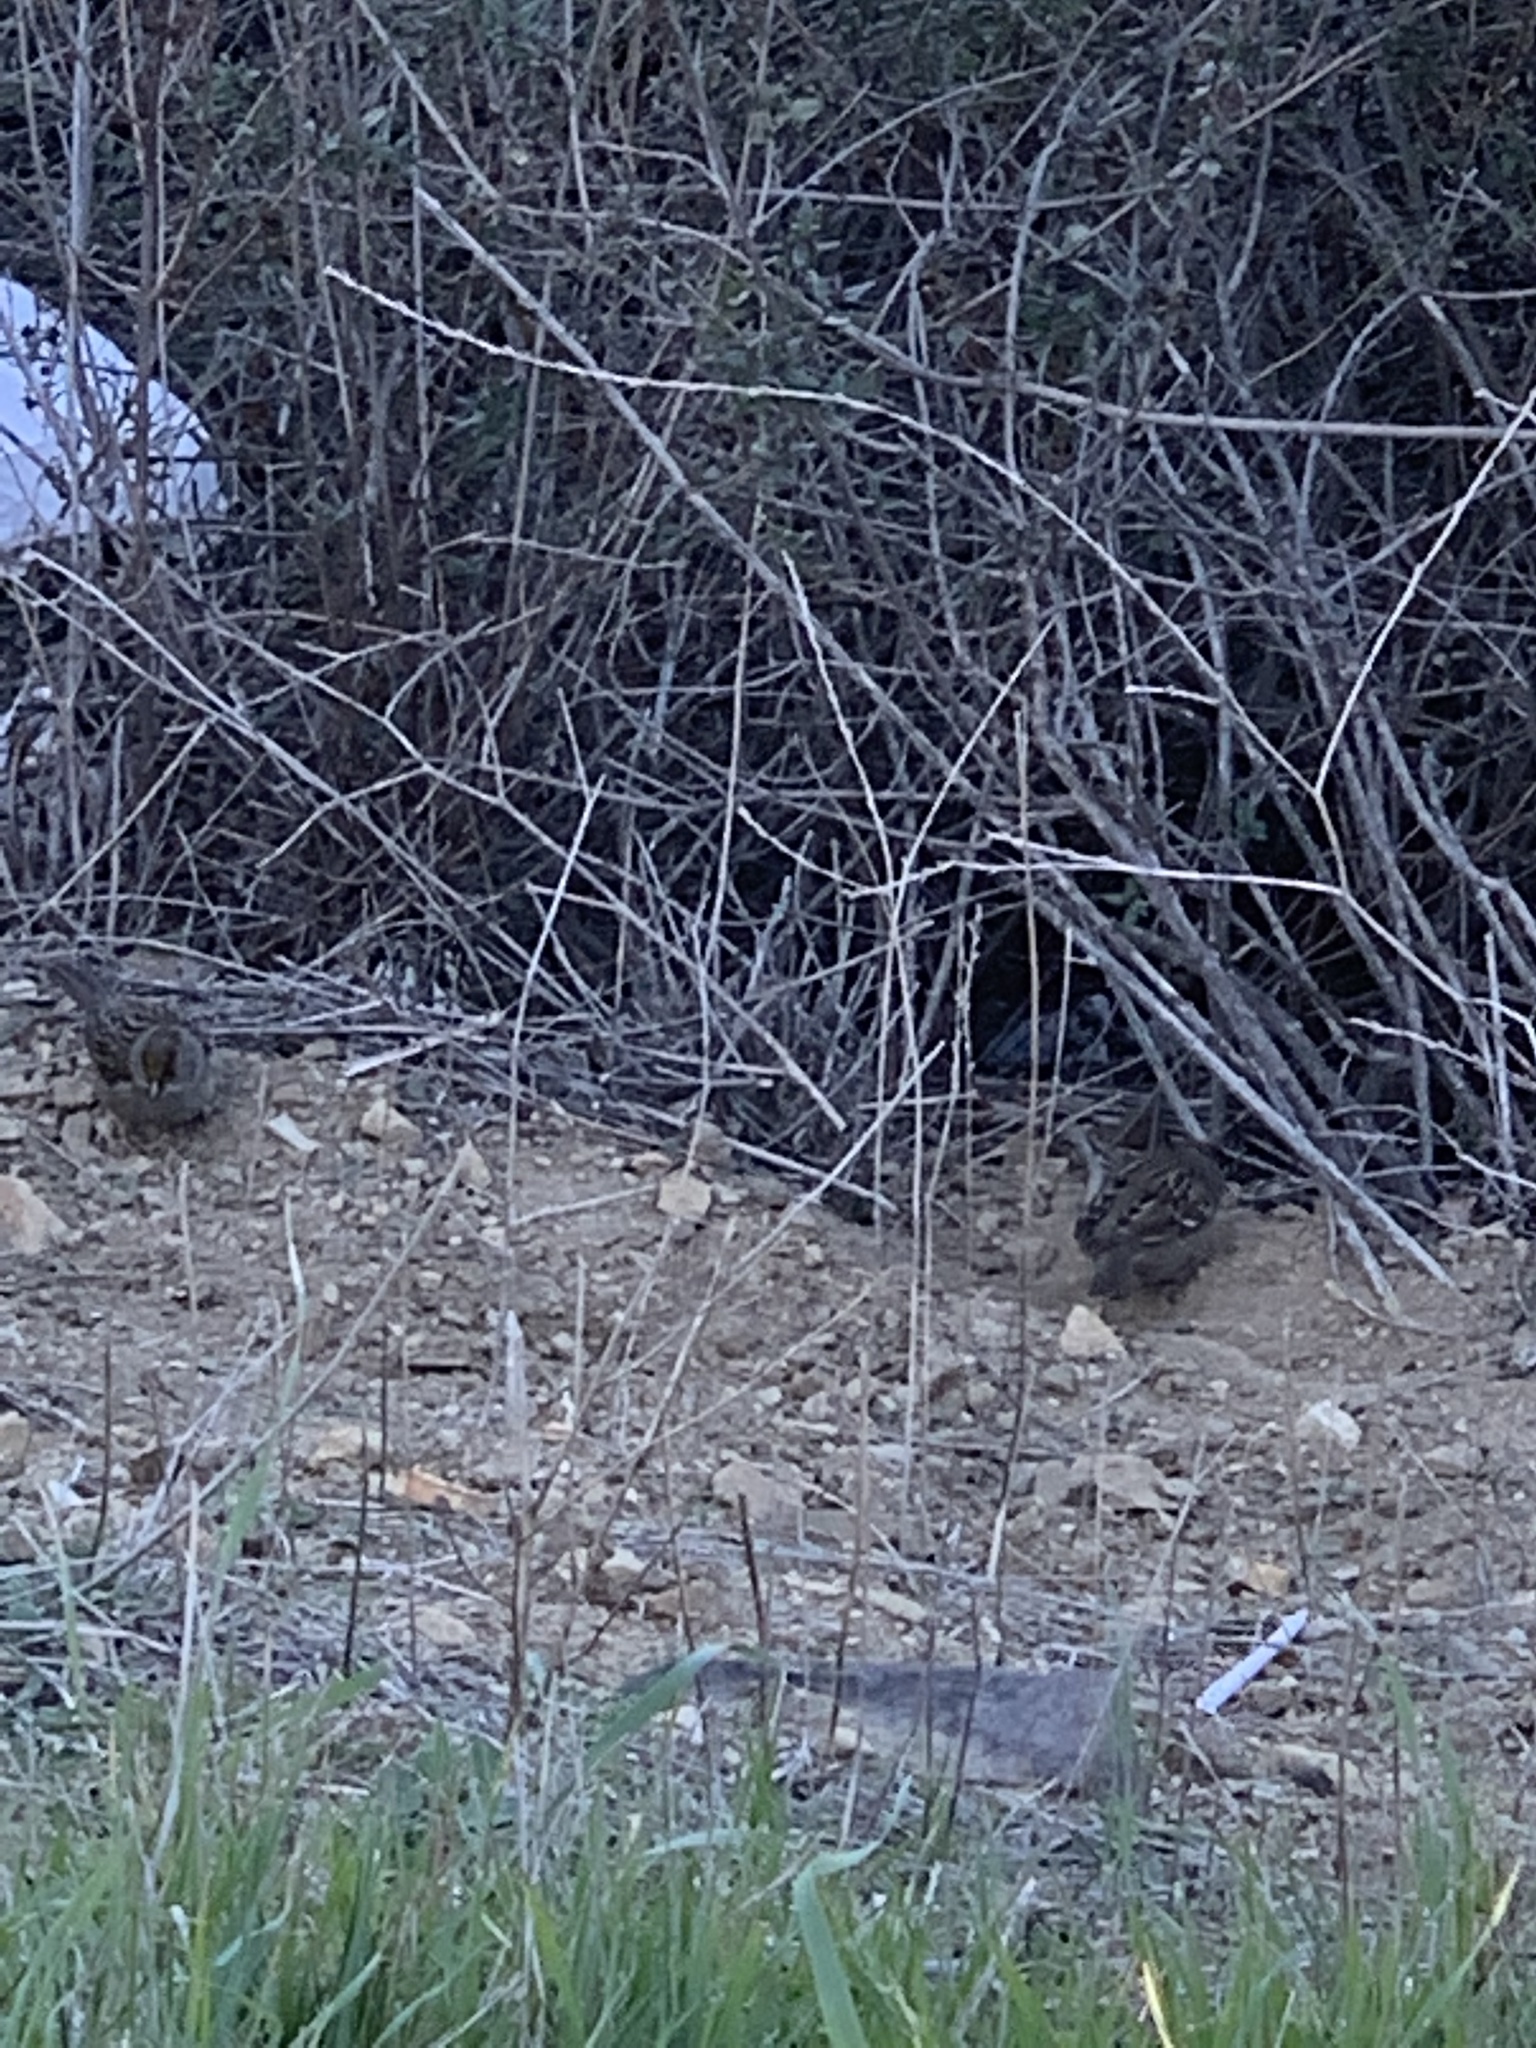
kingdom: Animalia
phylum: Chordata
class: Aves
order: Passeriformes
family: Passerellidae
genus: Zonotrichia
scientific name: Zonotrichia atricapilla
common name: Golden-crowned sparrow
